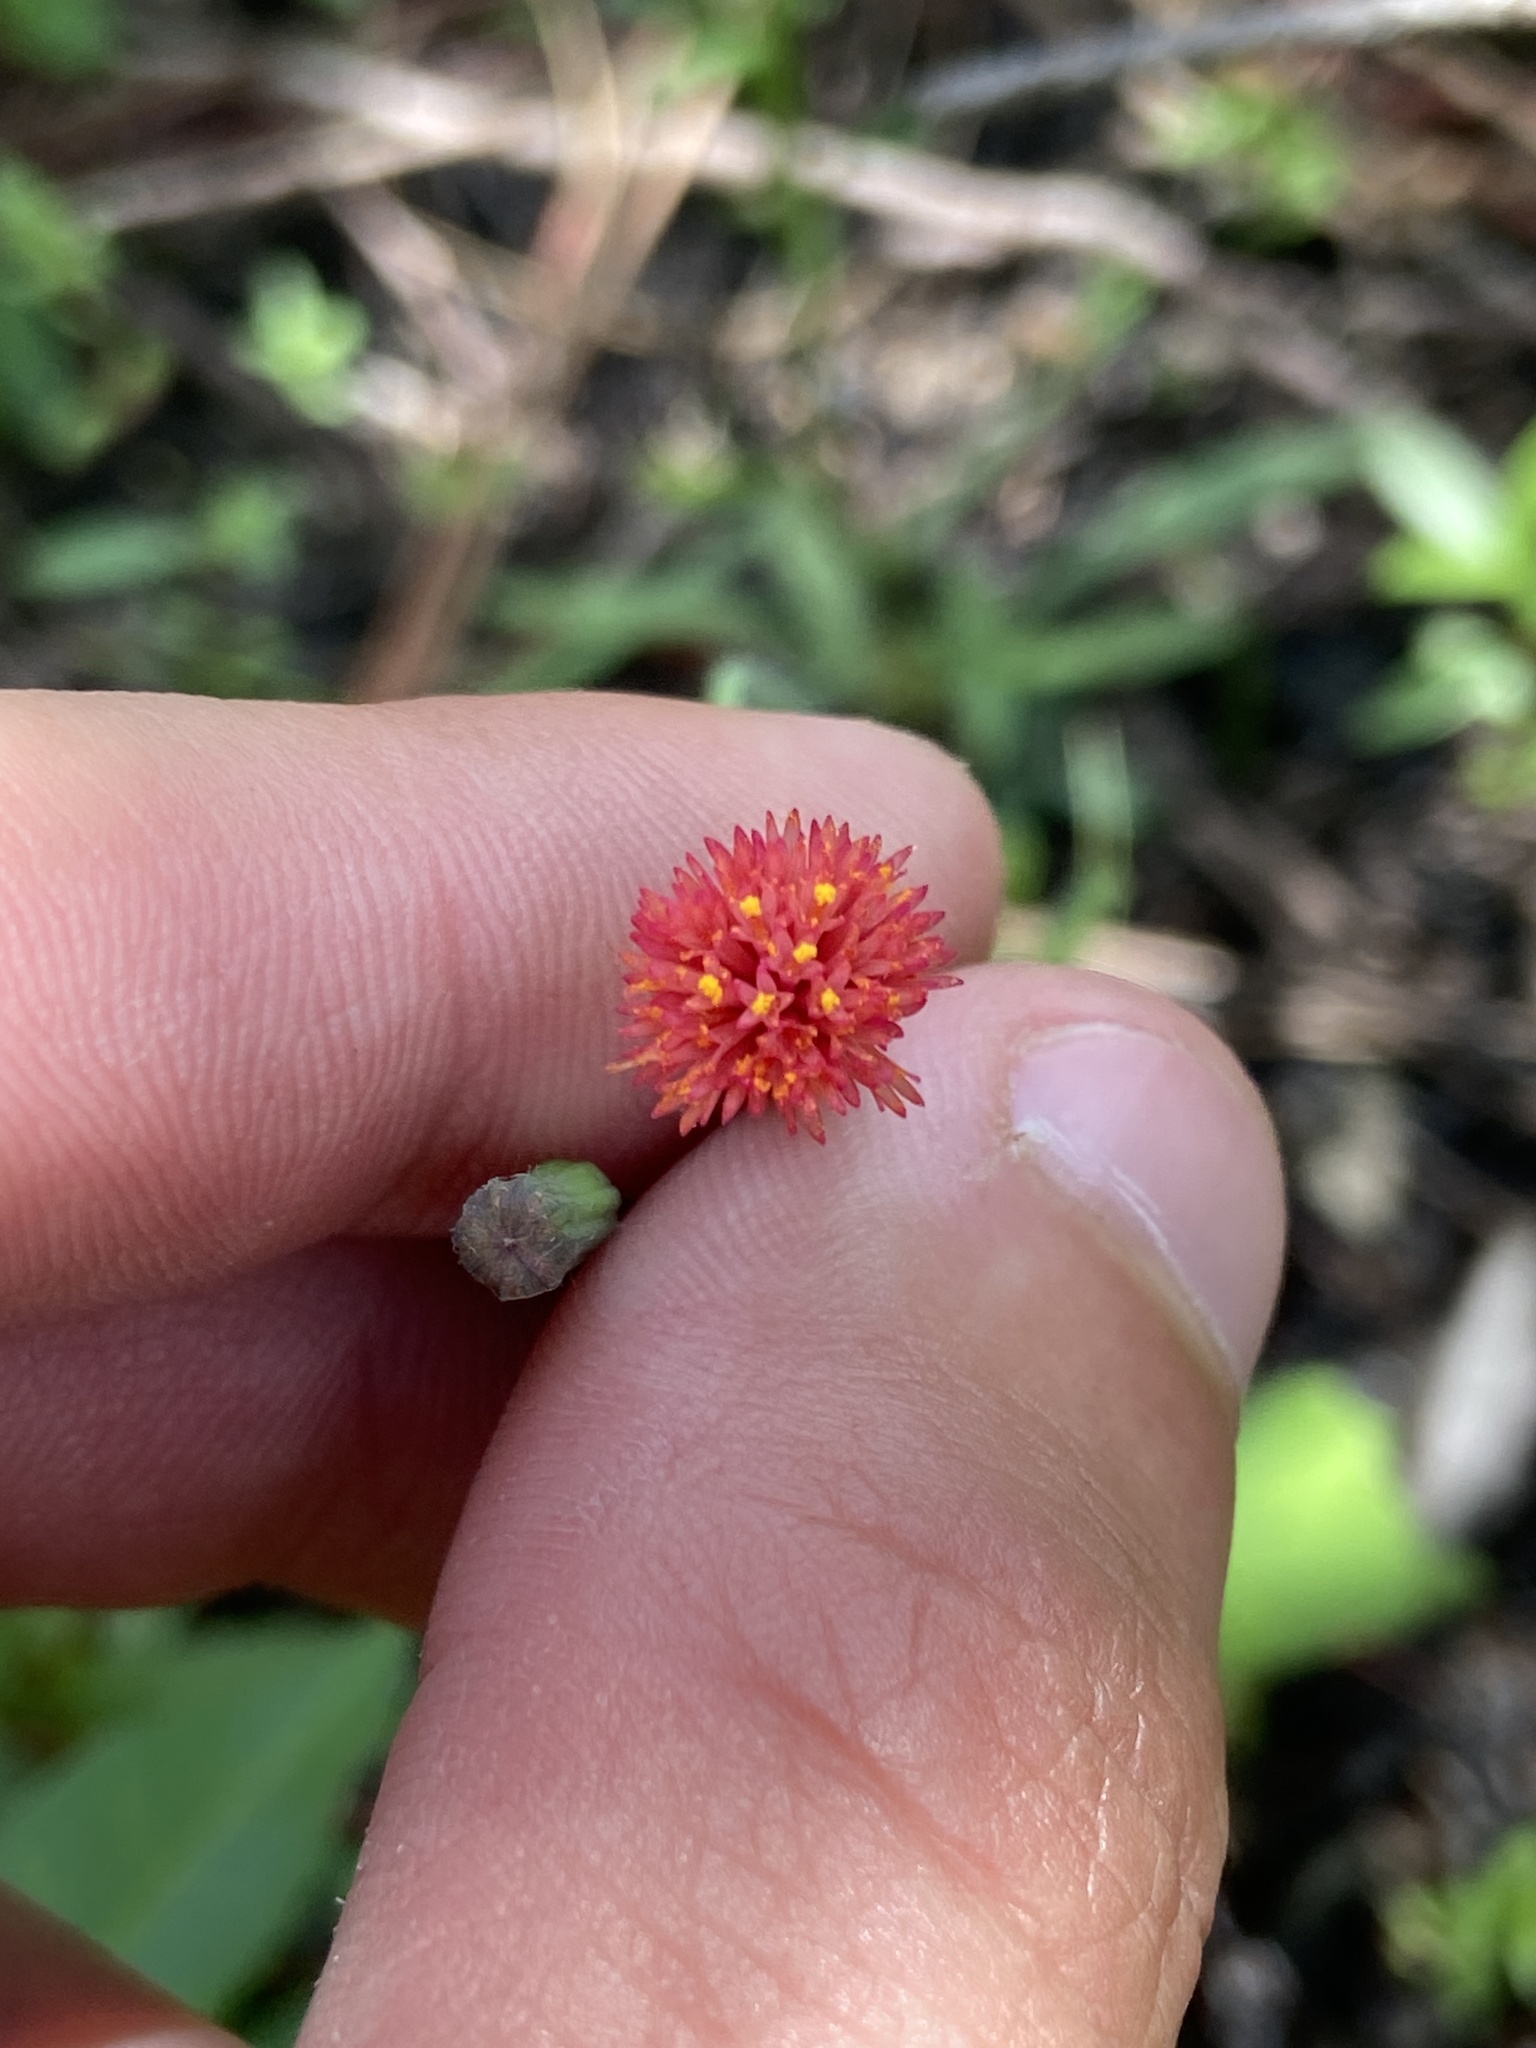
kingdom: Plantae
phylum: Tracheophyta
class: Magnoliopsida
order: Asterales
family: Asteraceae
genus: Emilia
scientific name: Emilia fosbergii
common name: Florida tasselflower
